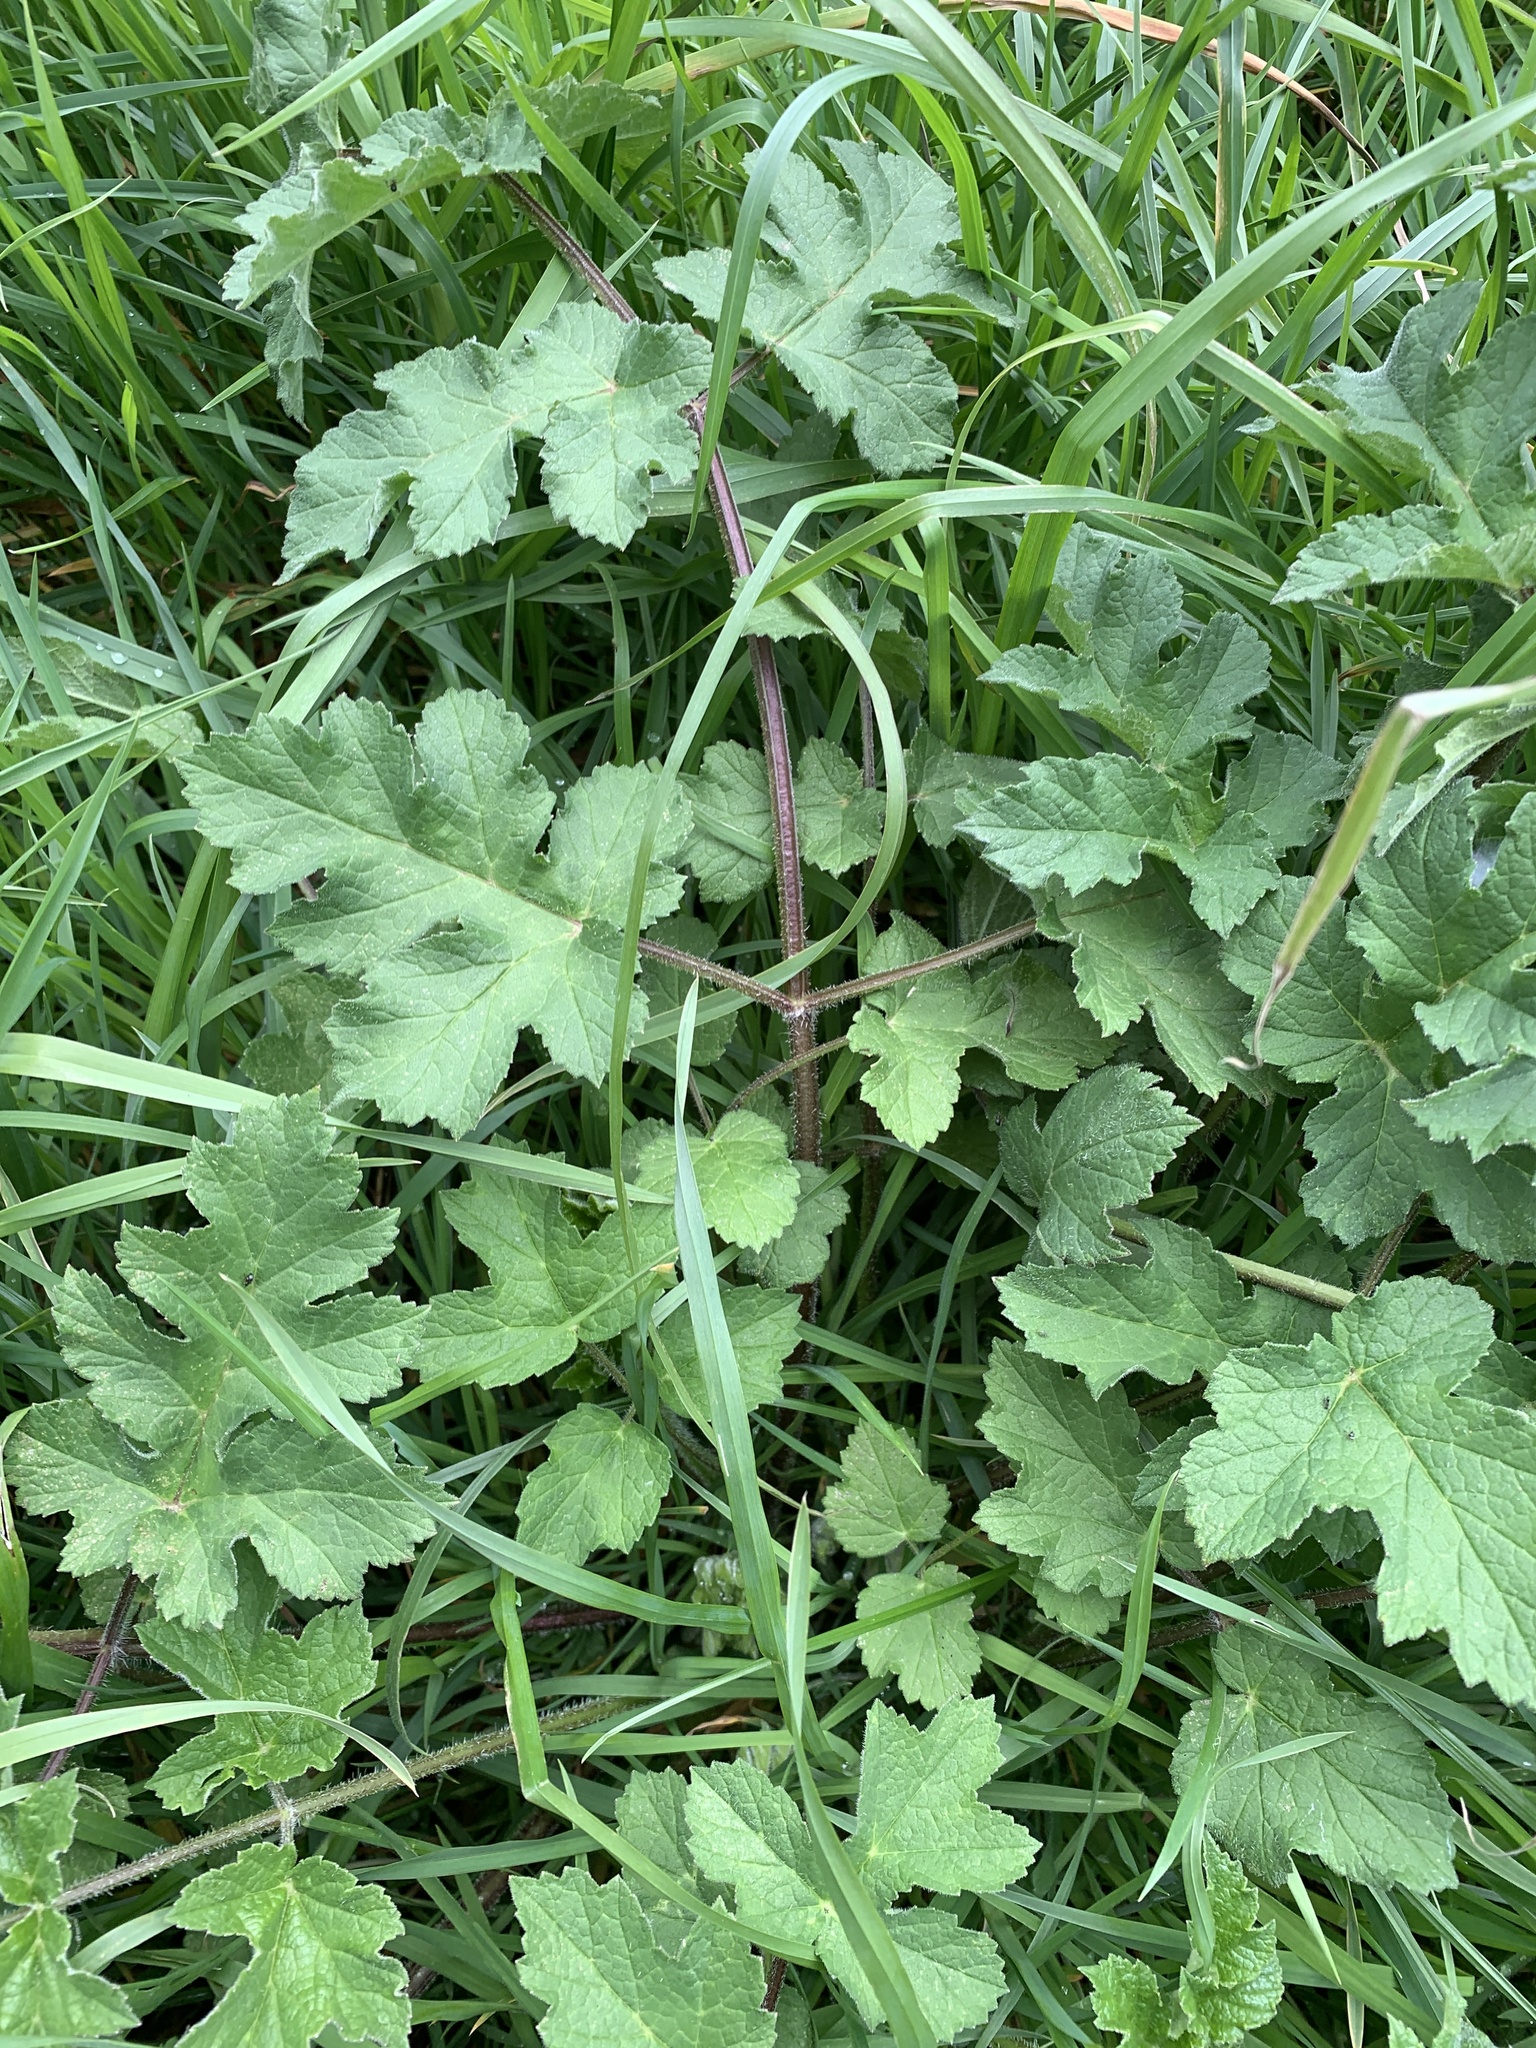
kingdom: Plantae
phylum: Tracheophyta
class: Magnoliopsida
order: Apiales
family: Apiaceae
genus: Heracleum
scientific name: Heracleum sphondylium
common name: Hogweed
